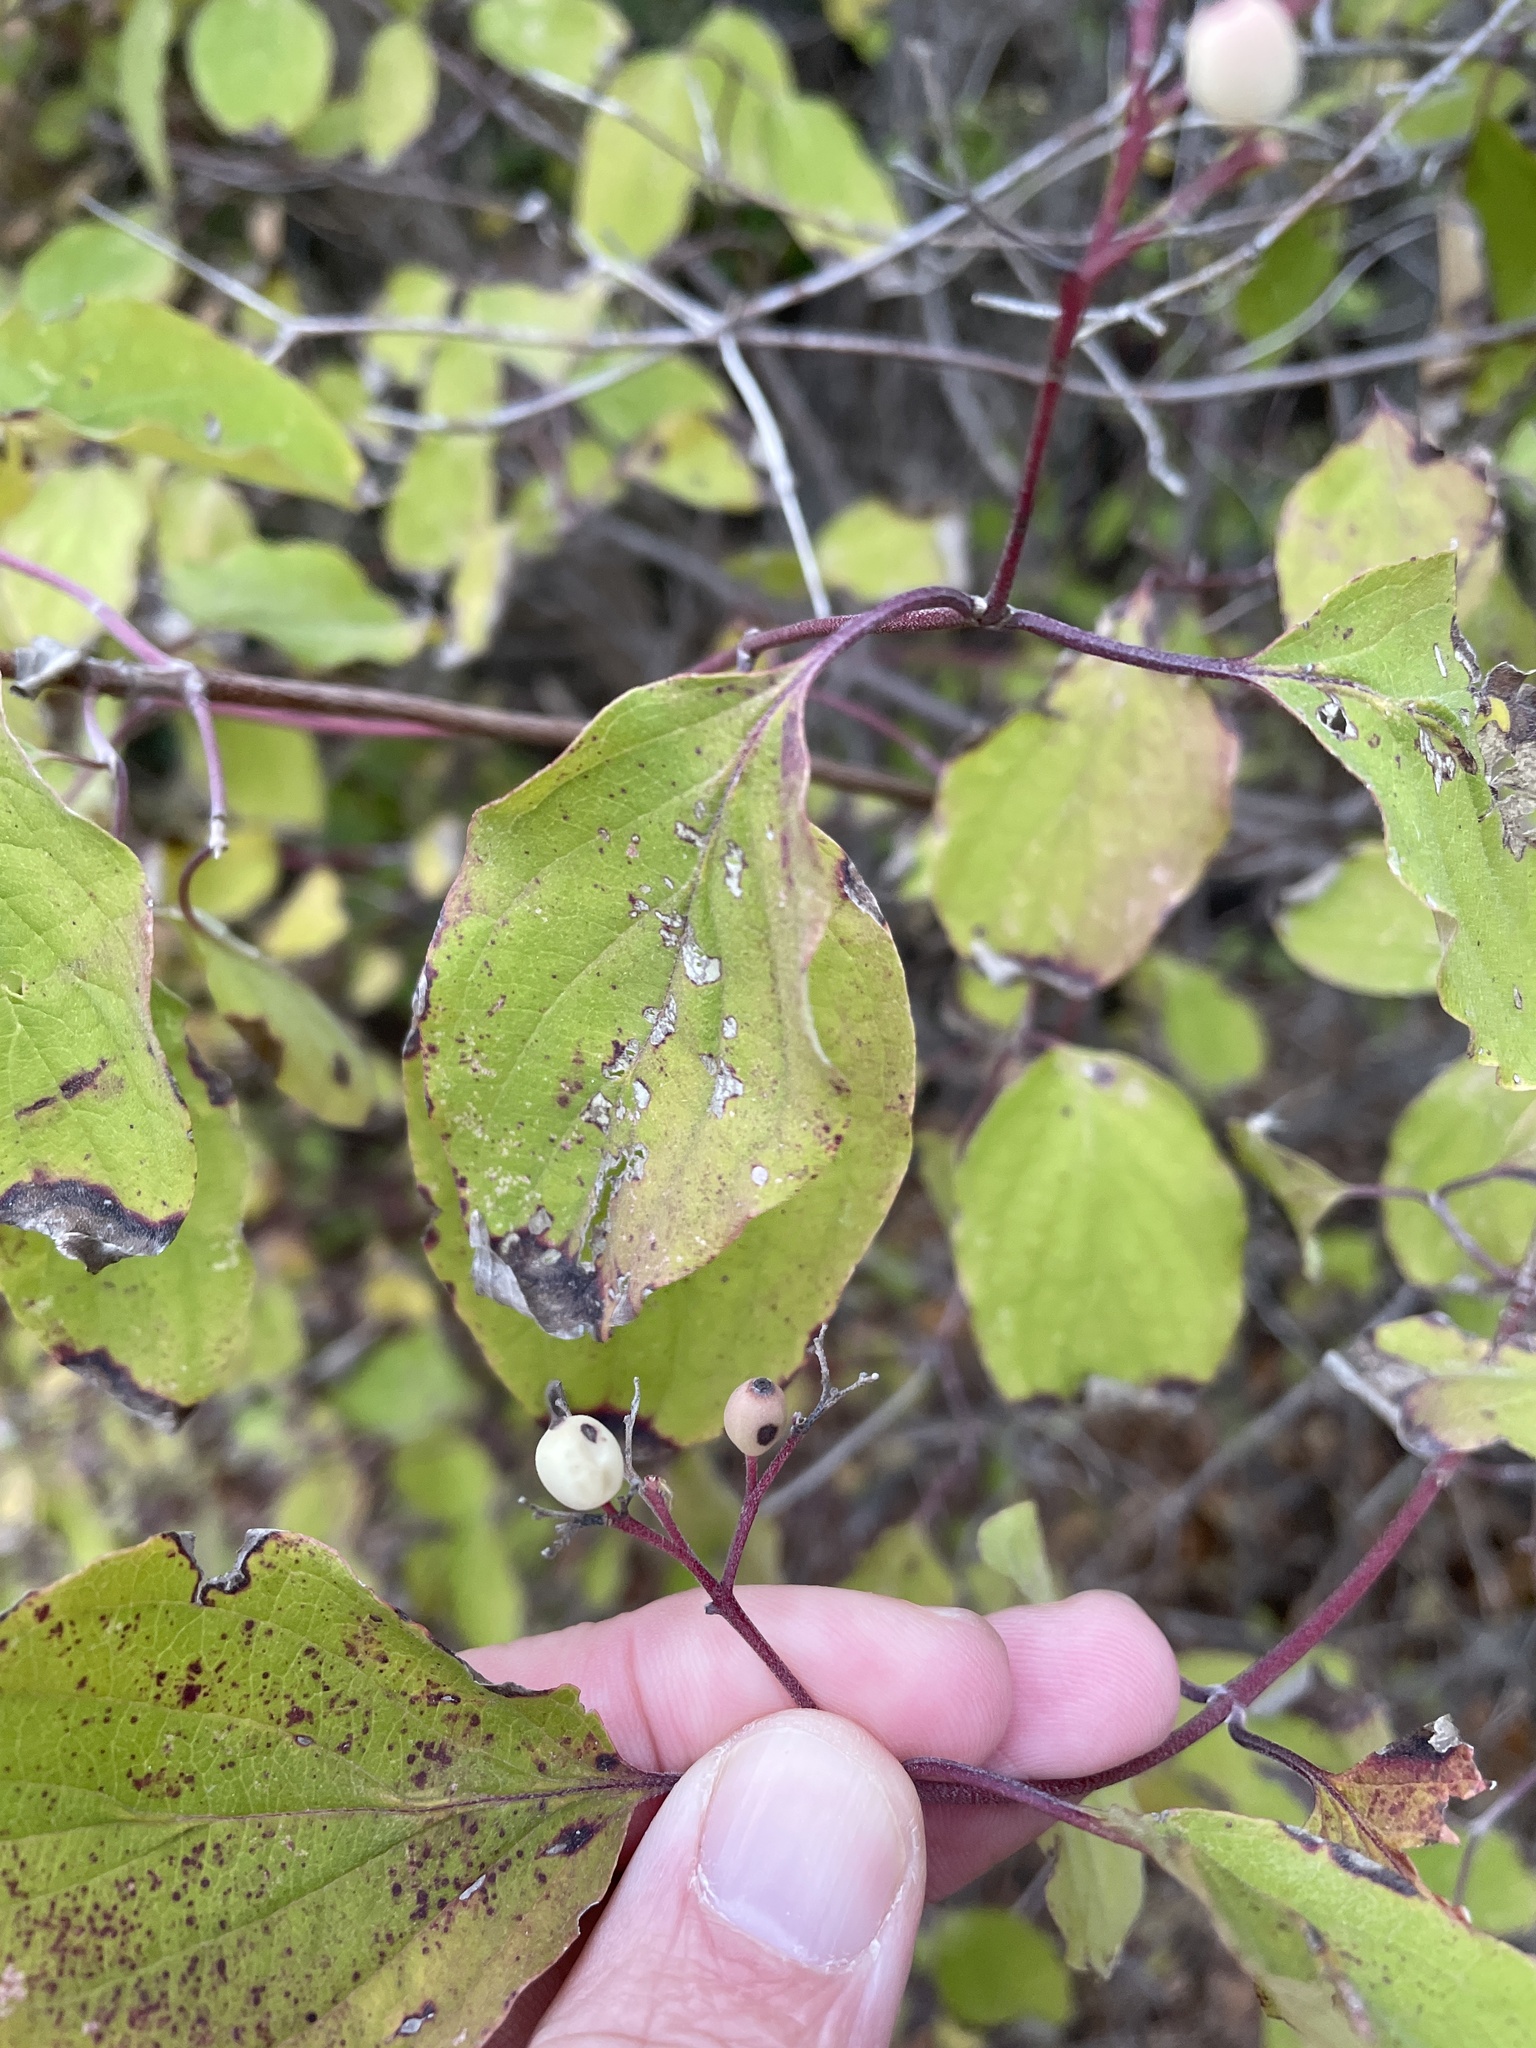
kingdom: Plantae
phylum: Tracheophyta
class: Magnoliopsida
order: Cornales
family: Cornaceae
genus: Cornus
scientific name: Cornus drummondii
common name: Rough-leaf dogwood
